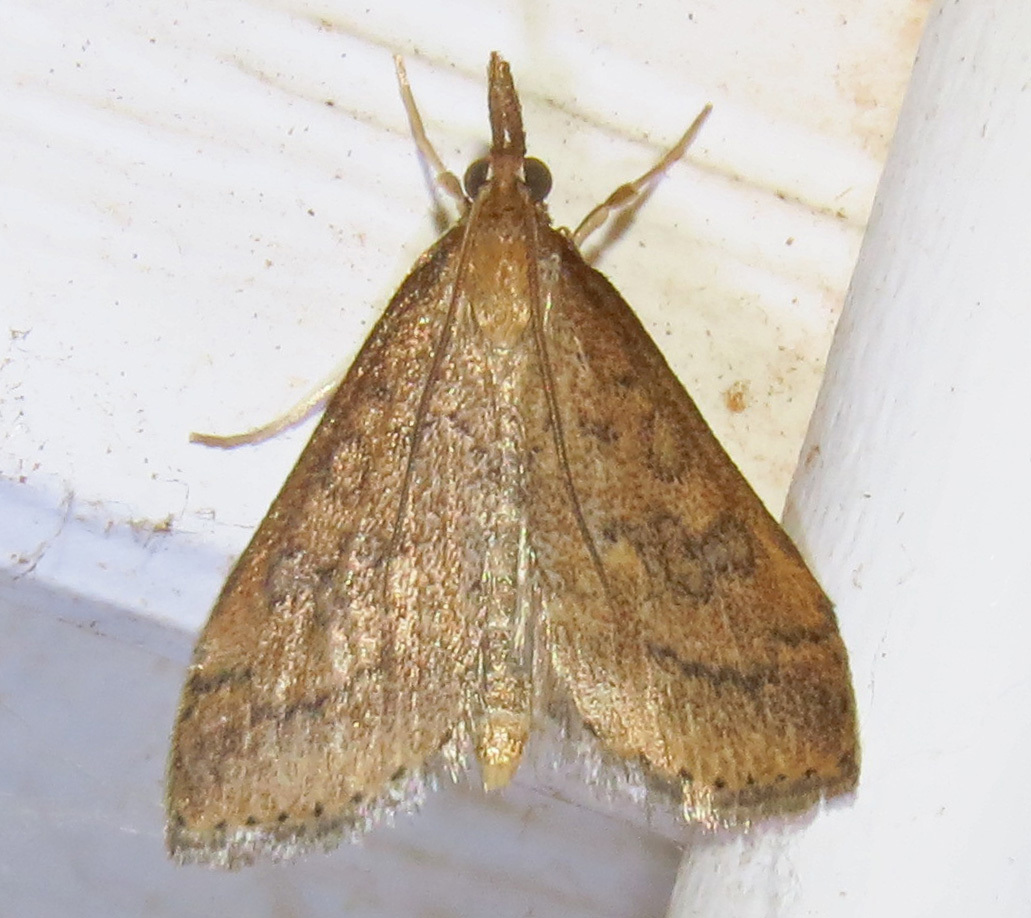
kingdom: Animalia
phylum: Arthropoda
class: Insecta
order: Lepidoptera
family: Crambidae
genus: Udea
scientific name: Udea rubigalis
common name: Celery leaftier moth
